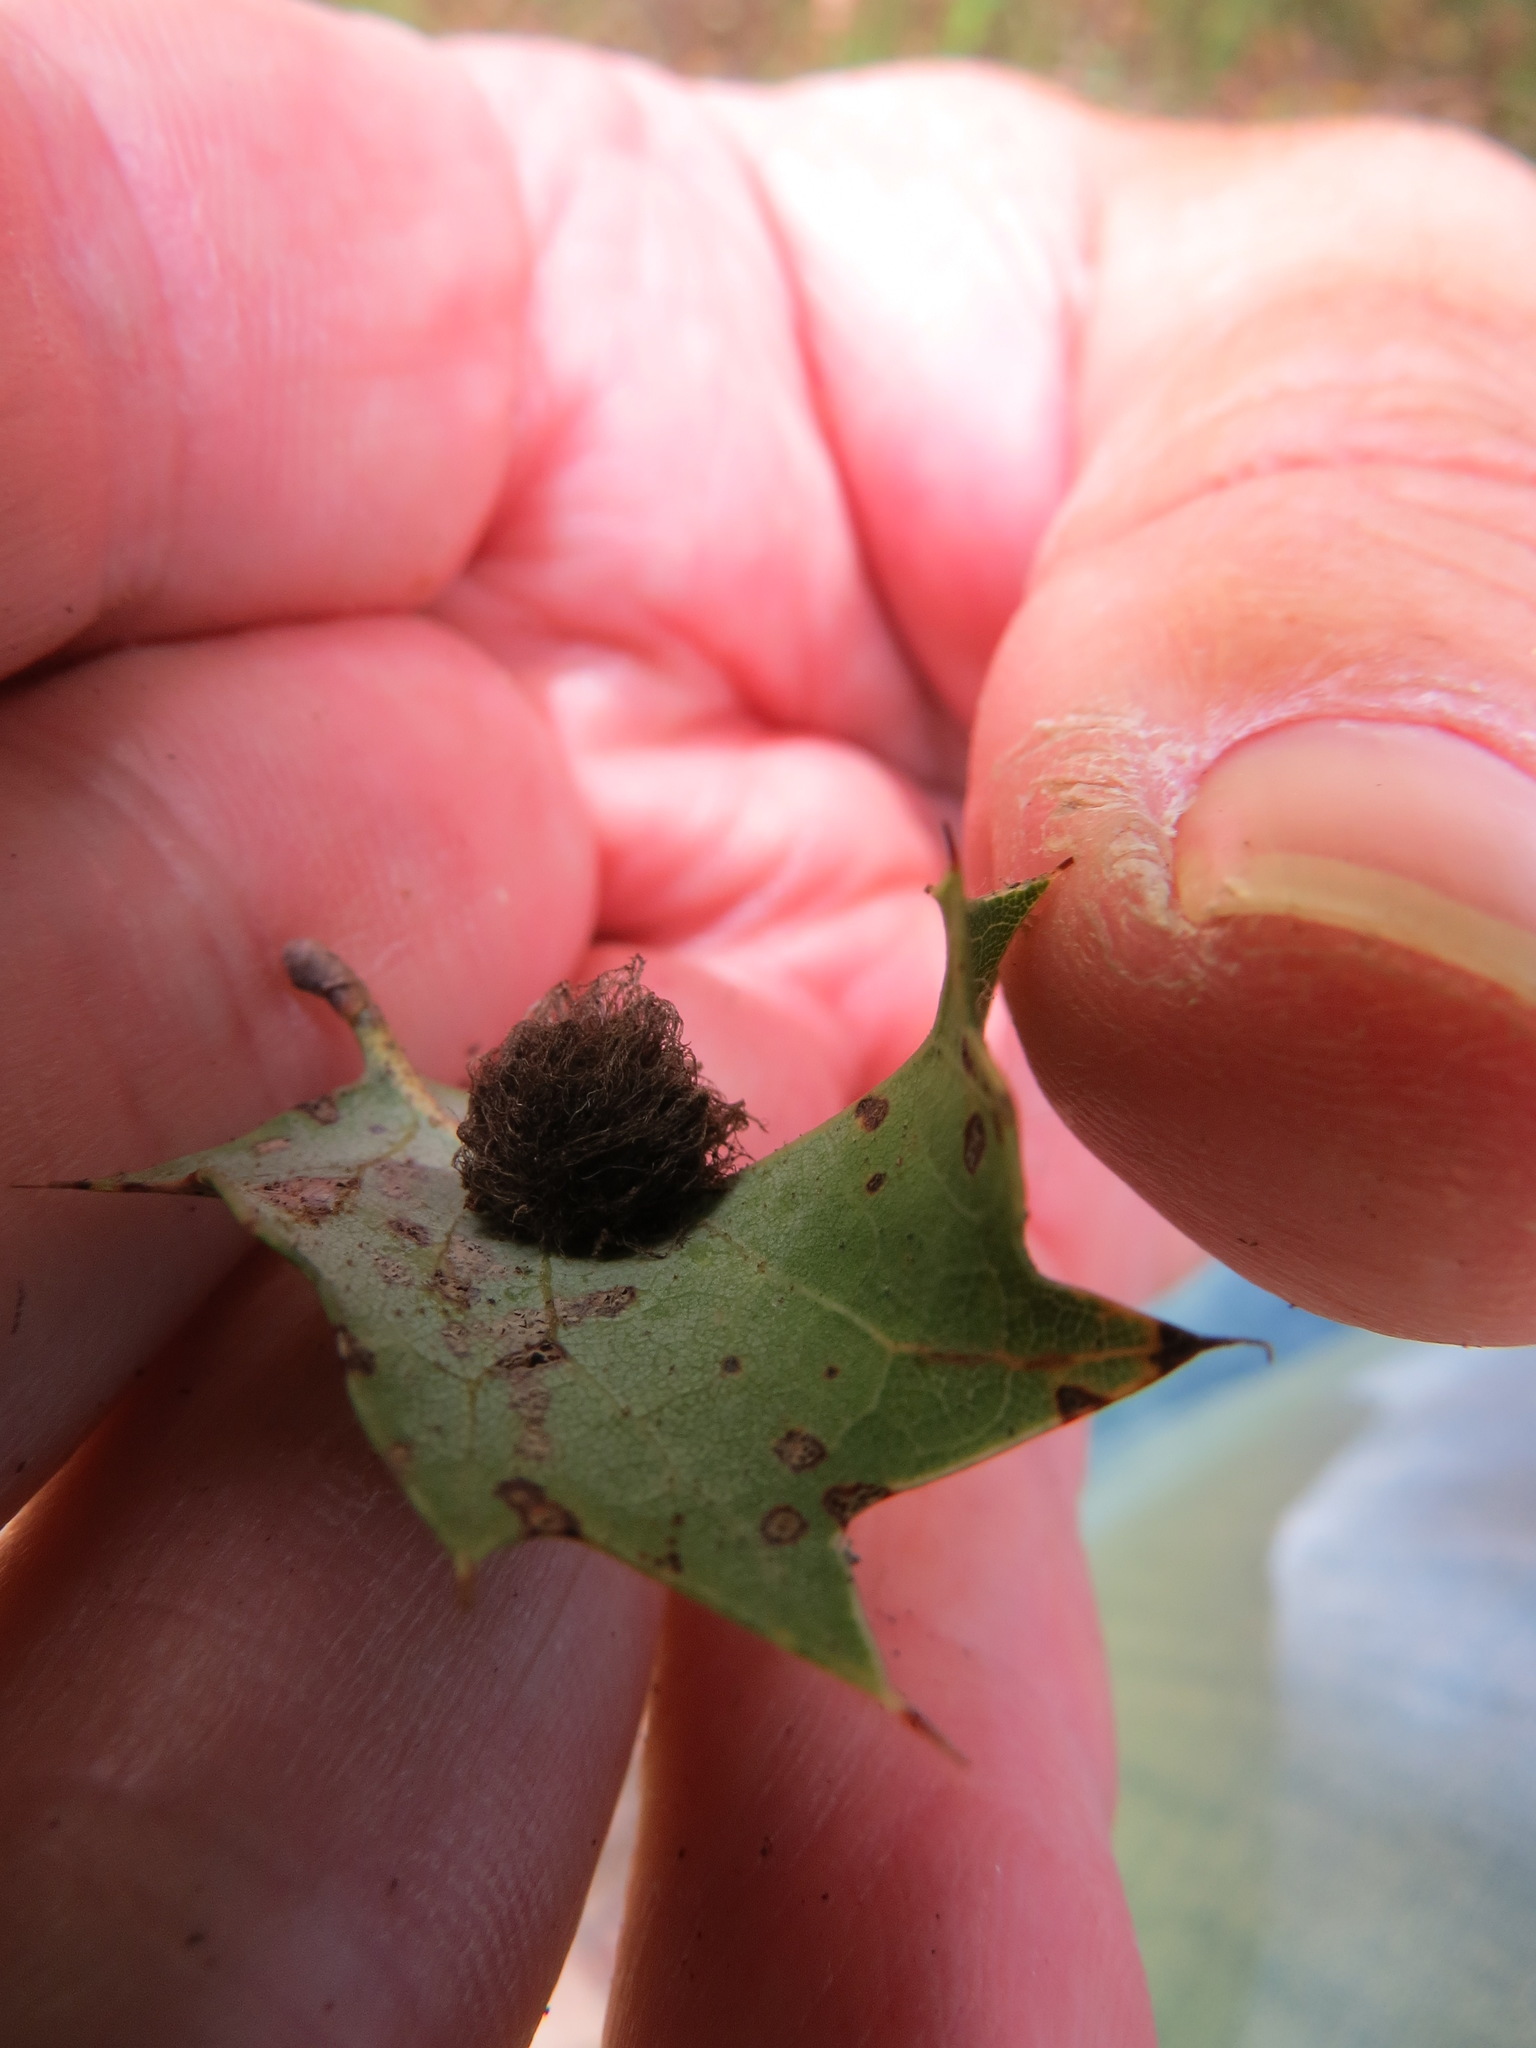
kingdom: Animalia
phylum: Arthropoda
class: Insecta
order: Hymenoptera
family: Cynipidae
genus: Disholandricus
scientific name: Disholandricus
